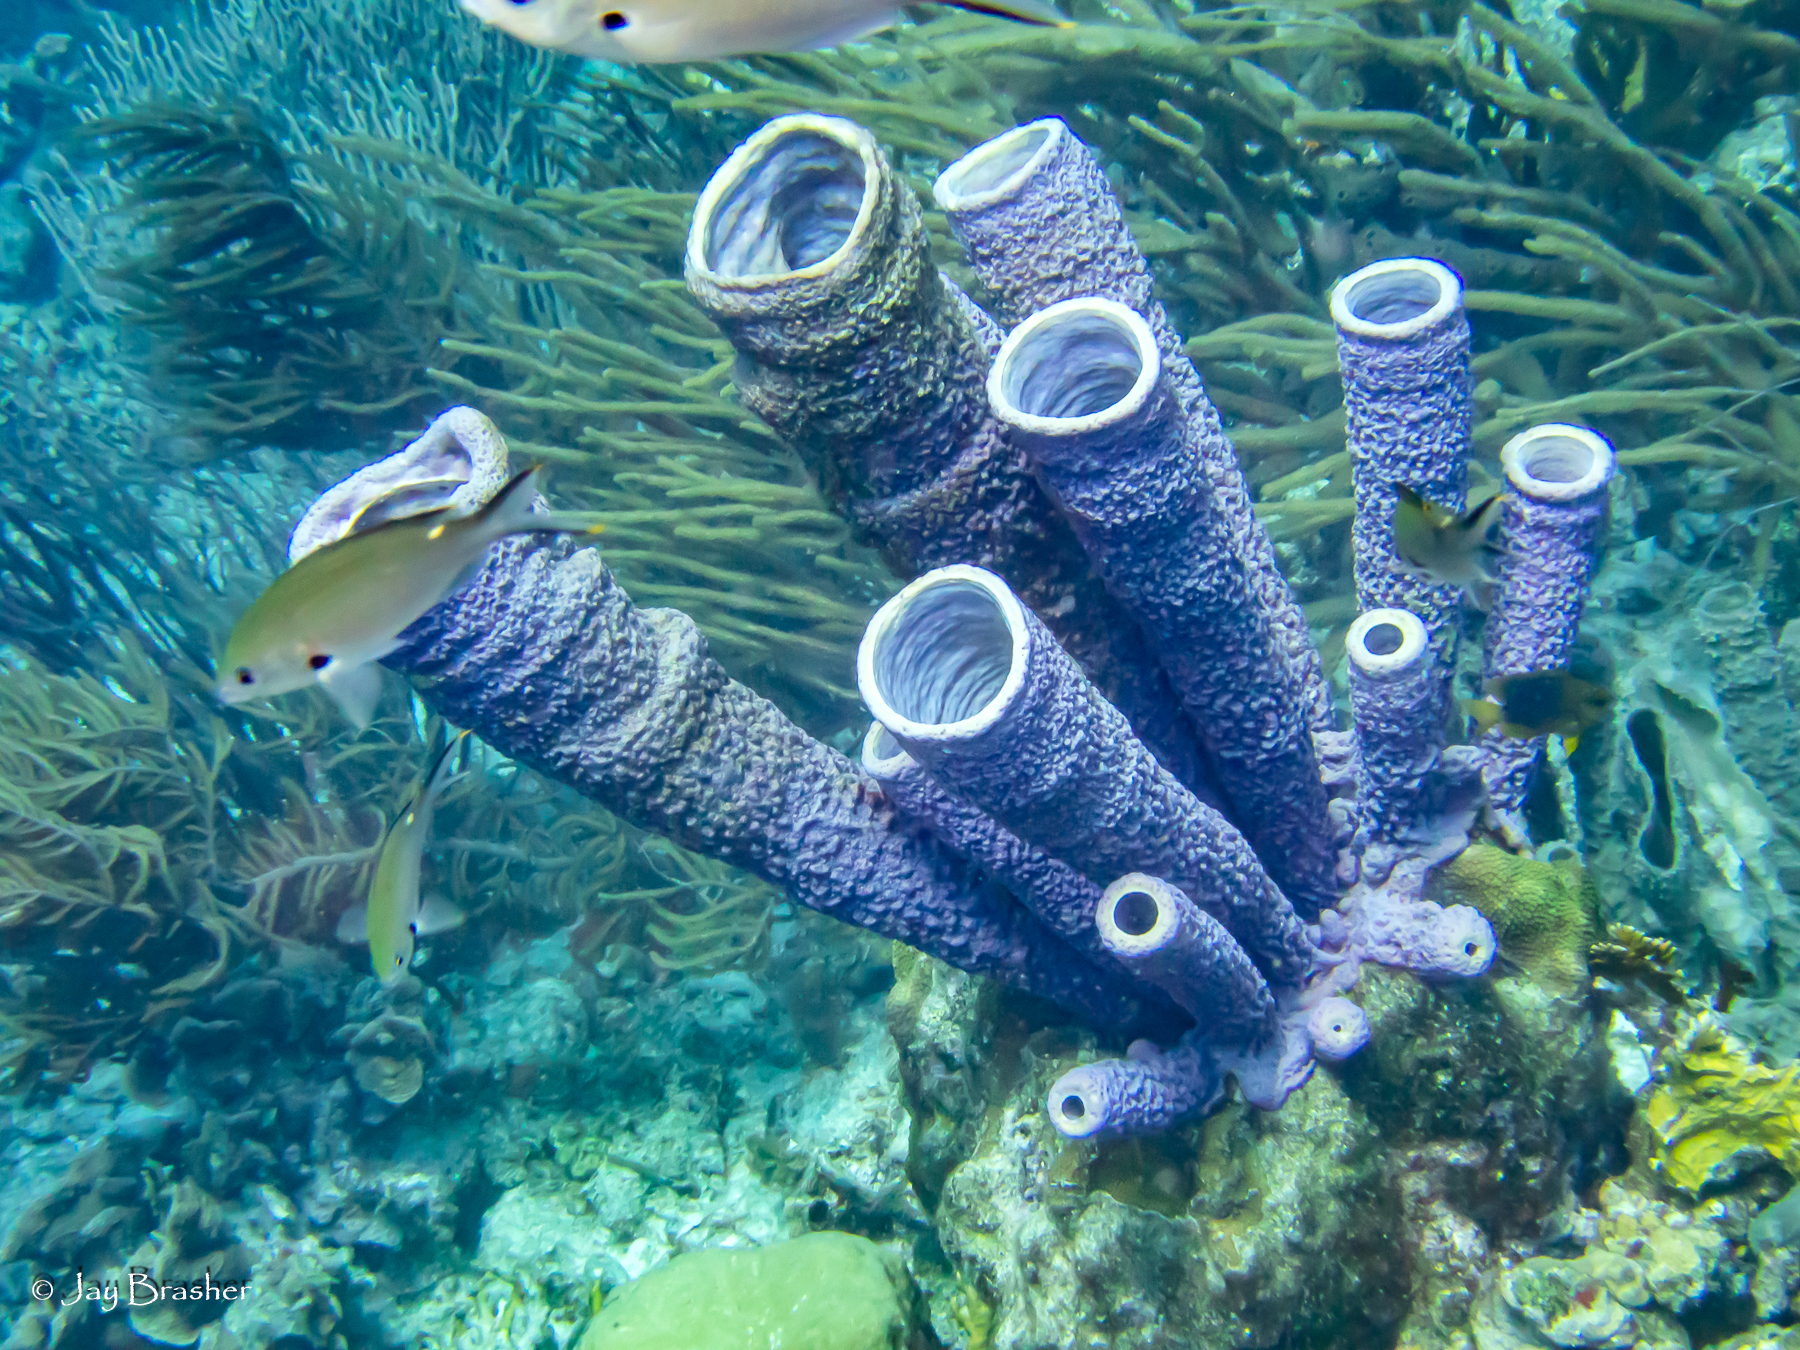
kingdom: Animalia
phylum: Chordata
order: Perciformes
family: Pomacentridae
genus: Chromis
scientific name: Chromis multilineata
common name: Brown chromis
